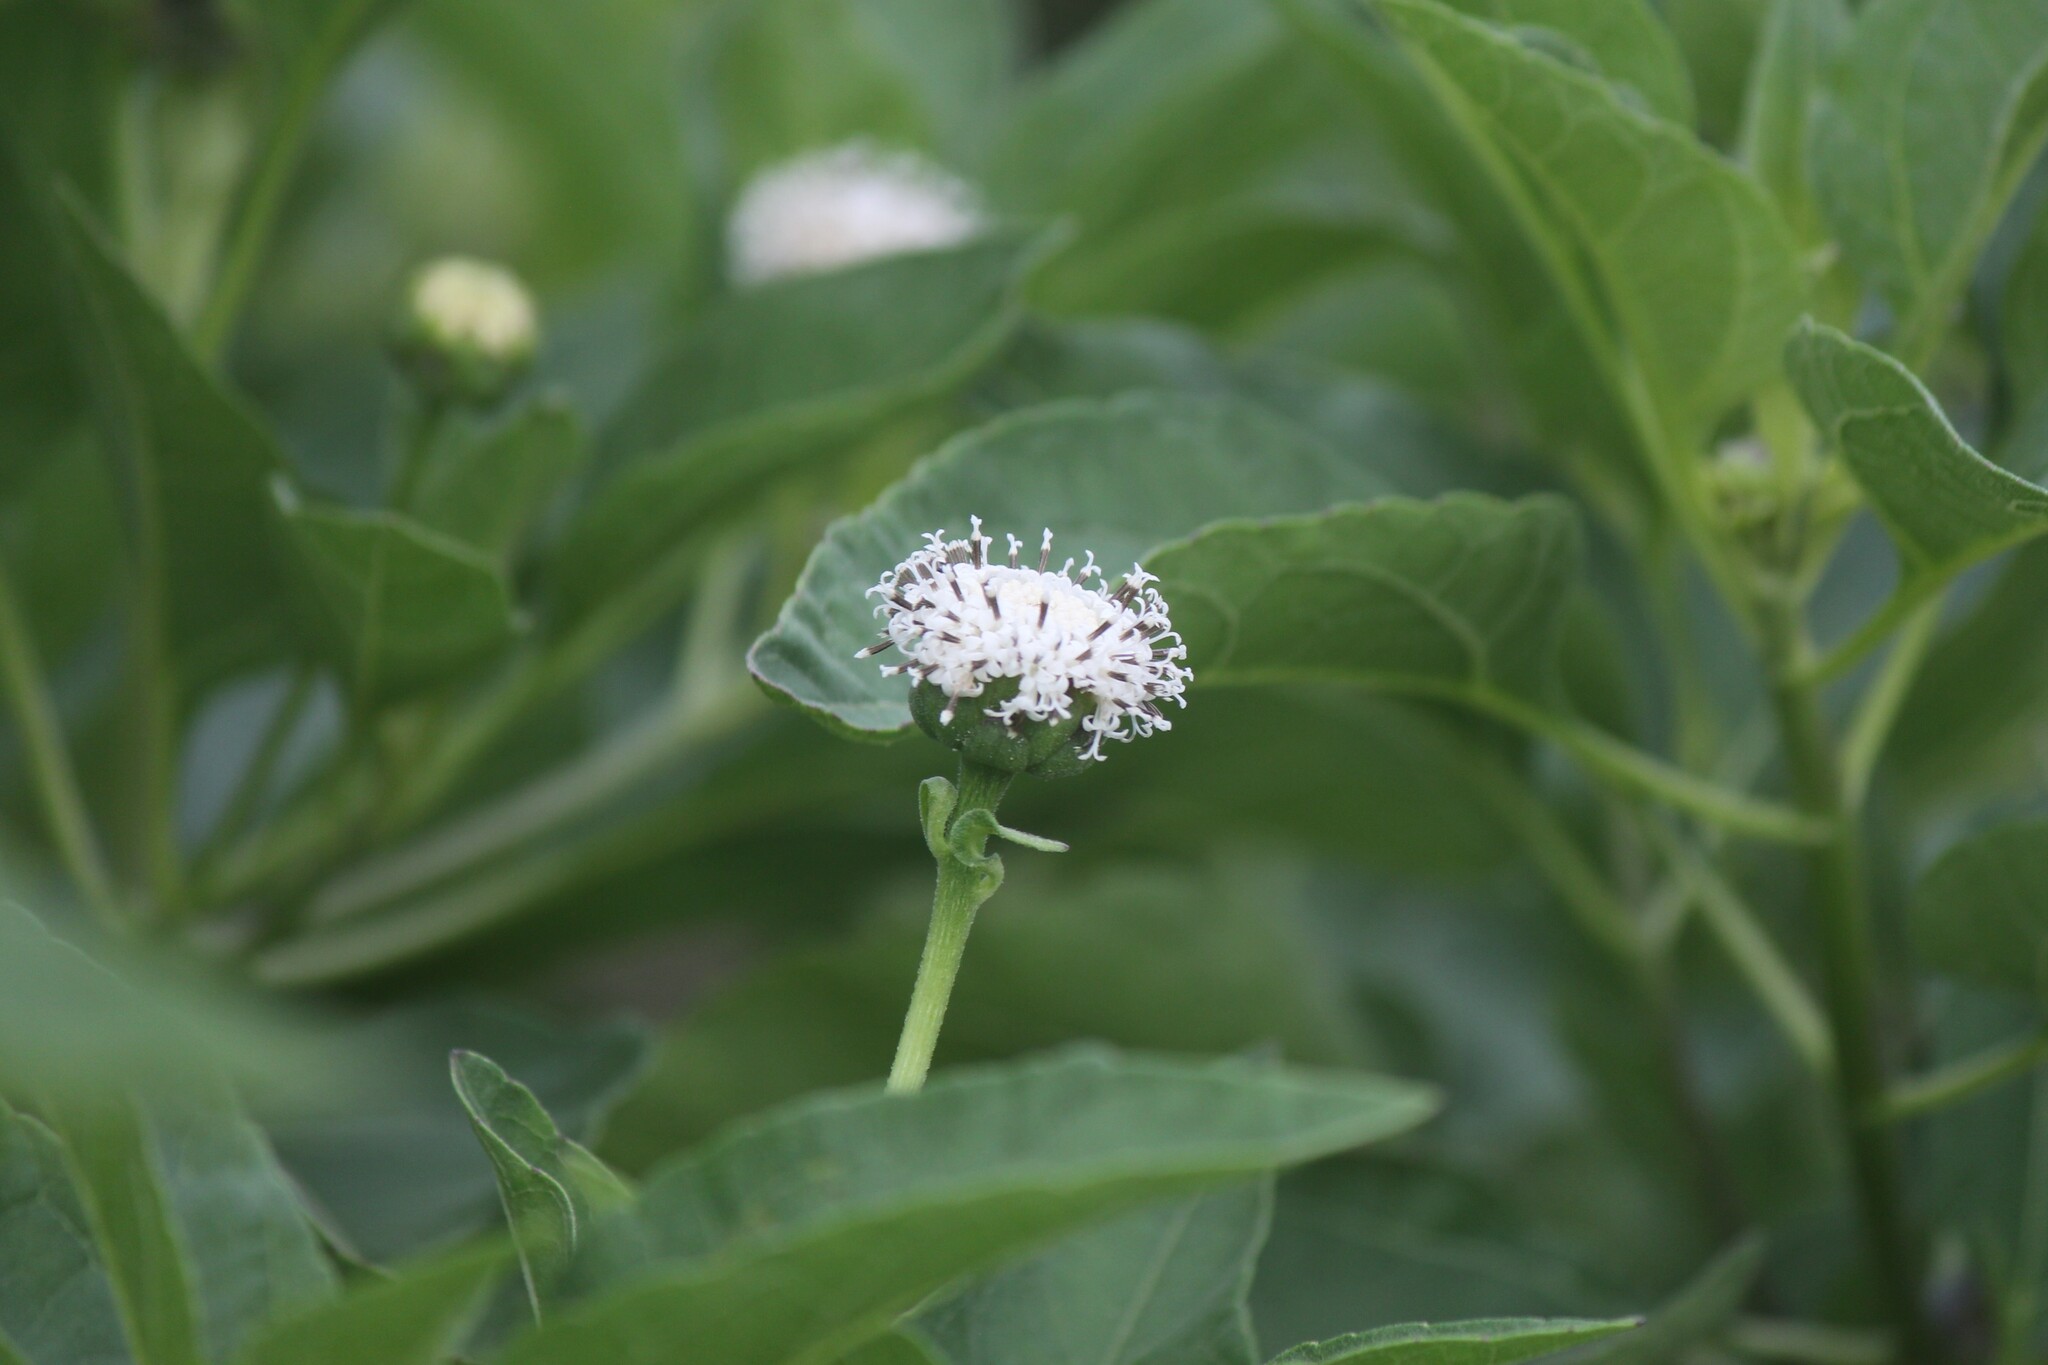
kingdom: Plantae
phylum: Tracheophyta
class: Magnoliopsida
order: Asterales
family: Asteraceae
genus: Scalesia
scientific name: Scalesia pedunculata
